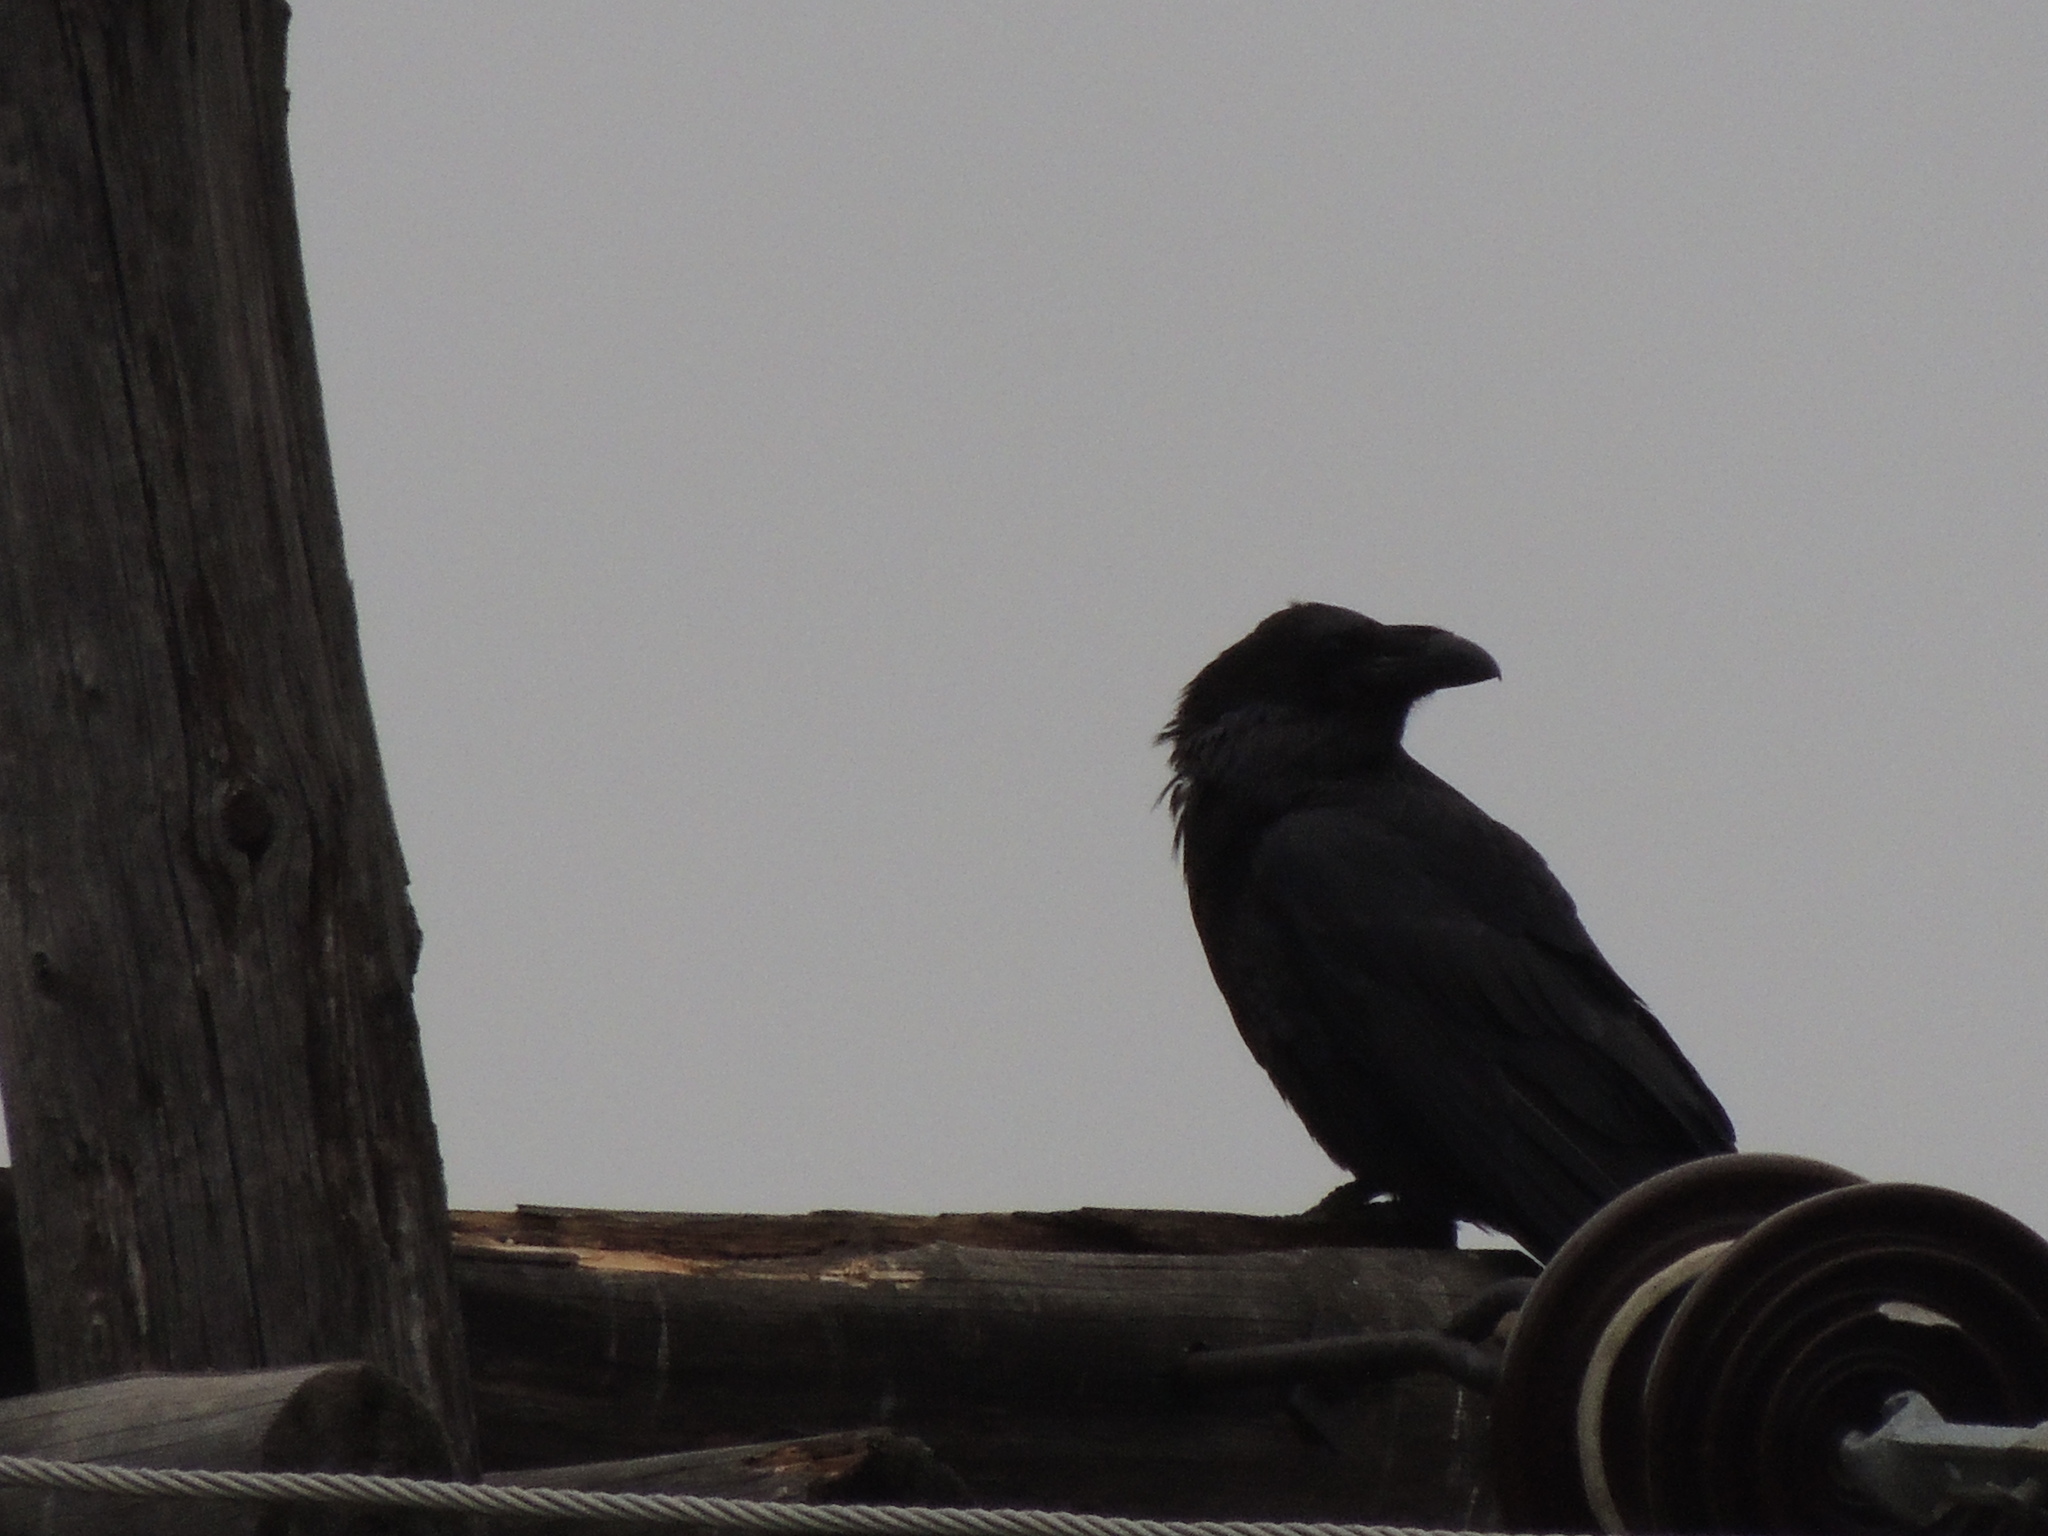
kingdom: Animalia
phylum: Chordata
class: Aves
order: Passeriformes
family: Corvidae
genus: Corvus
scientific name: Corvus corax
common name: Common raven
